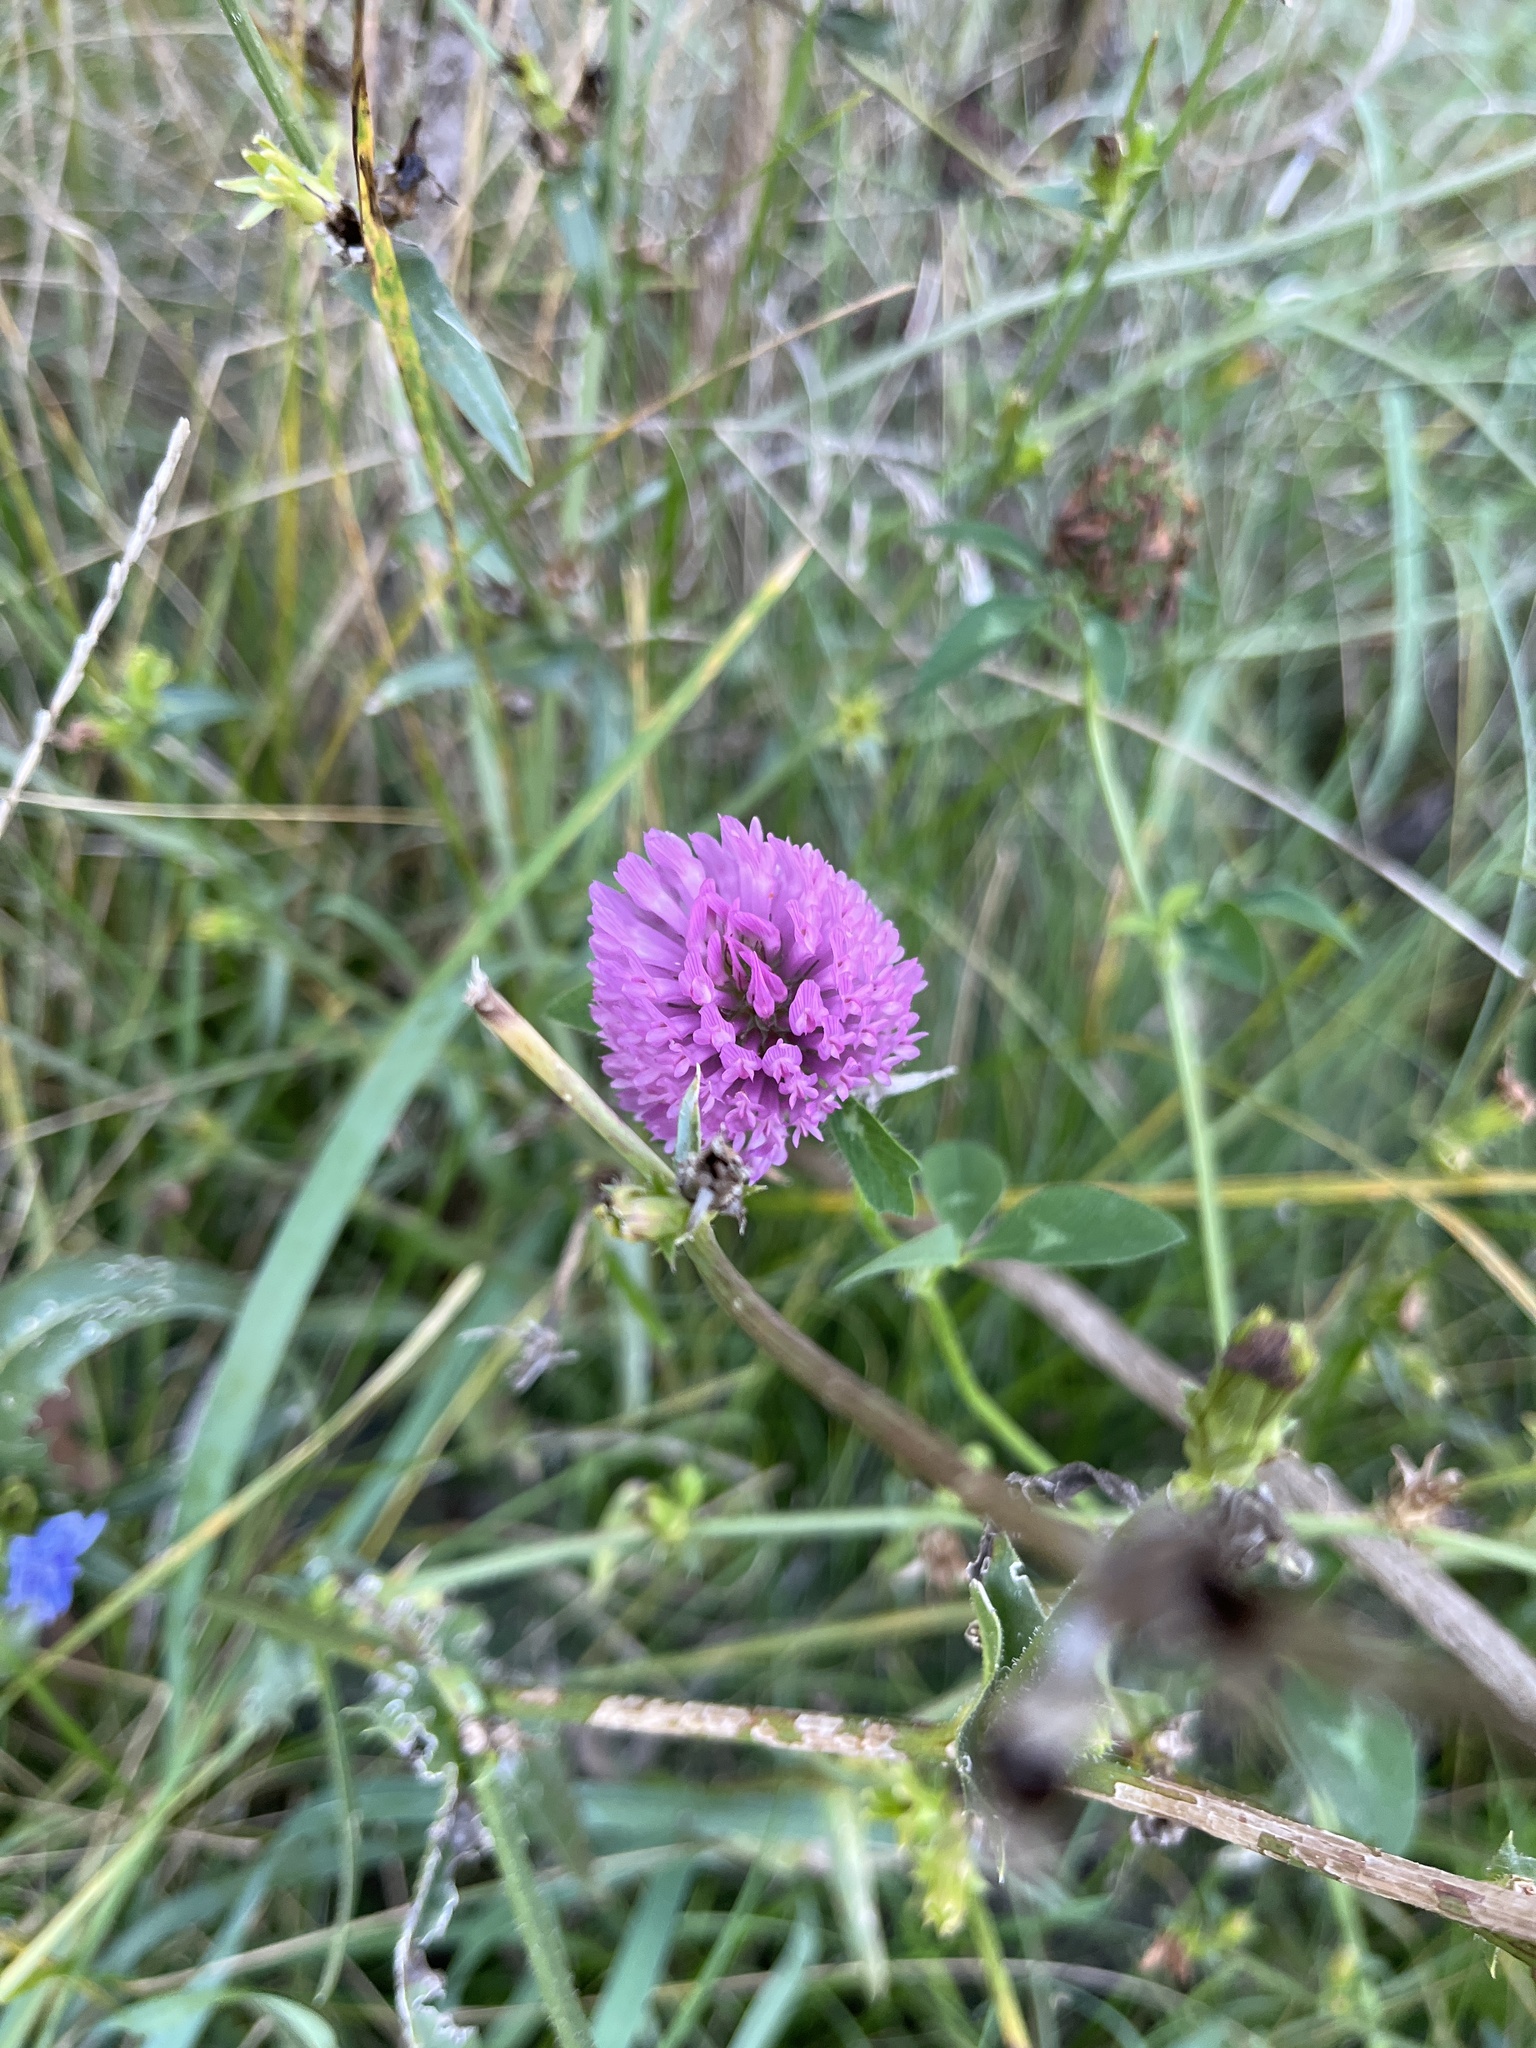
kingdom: Plantae
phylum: Tracheophyta
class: Magnoliopsida
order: Fabales
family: Fabaceae
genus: Trifolium
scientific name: Trifolium pratense
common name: Red clover
